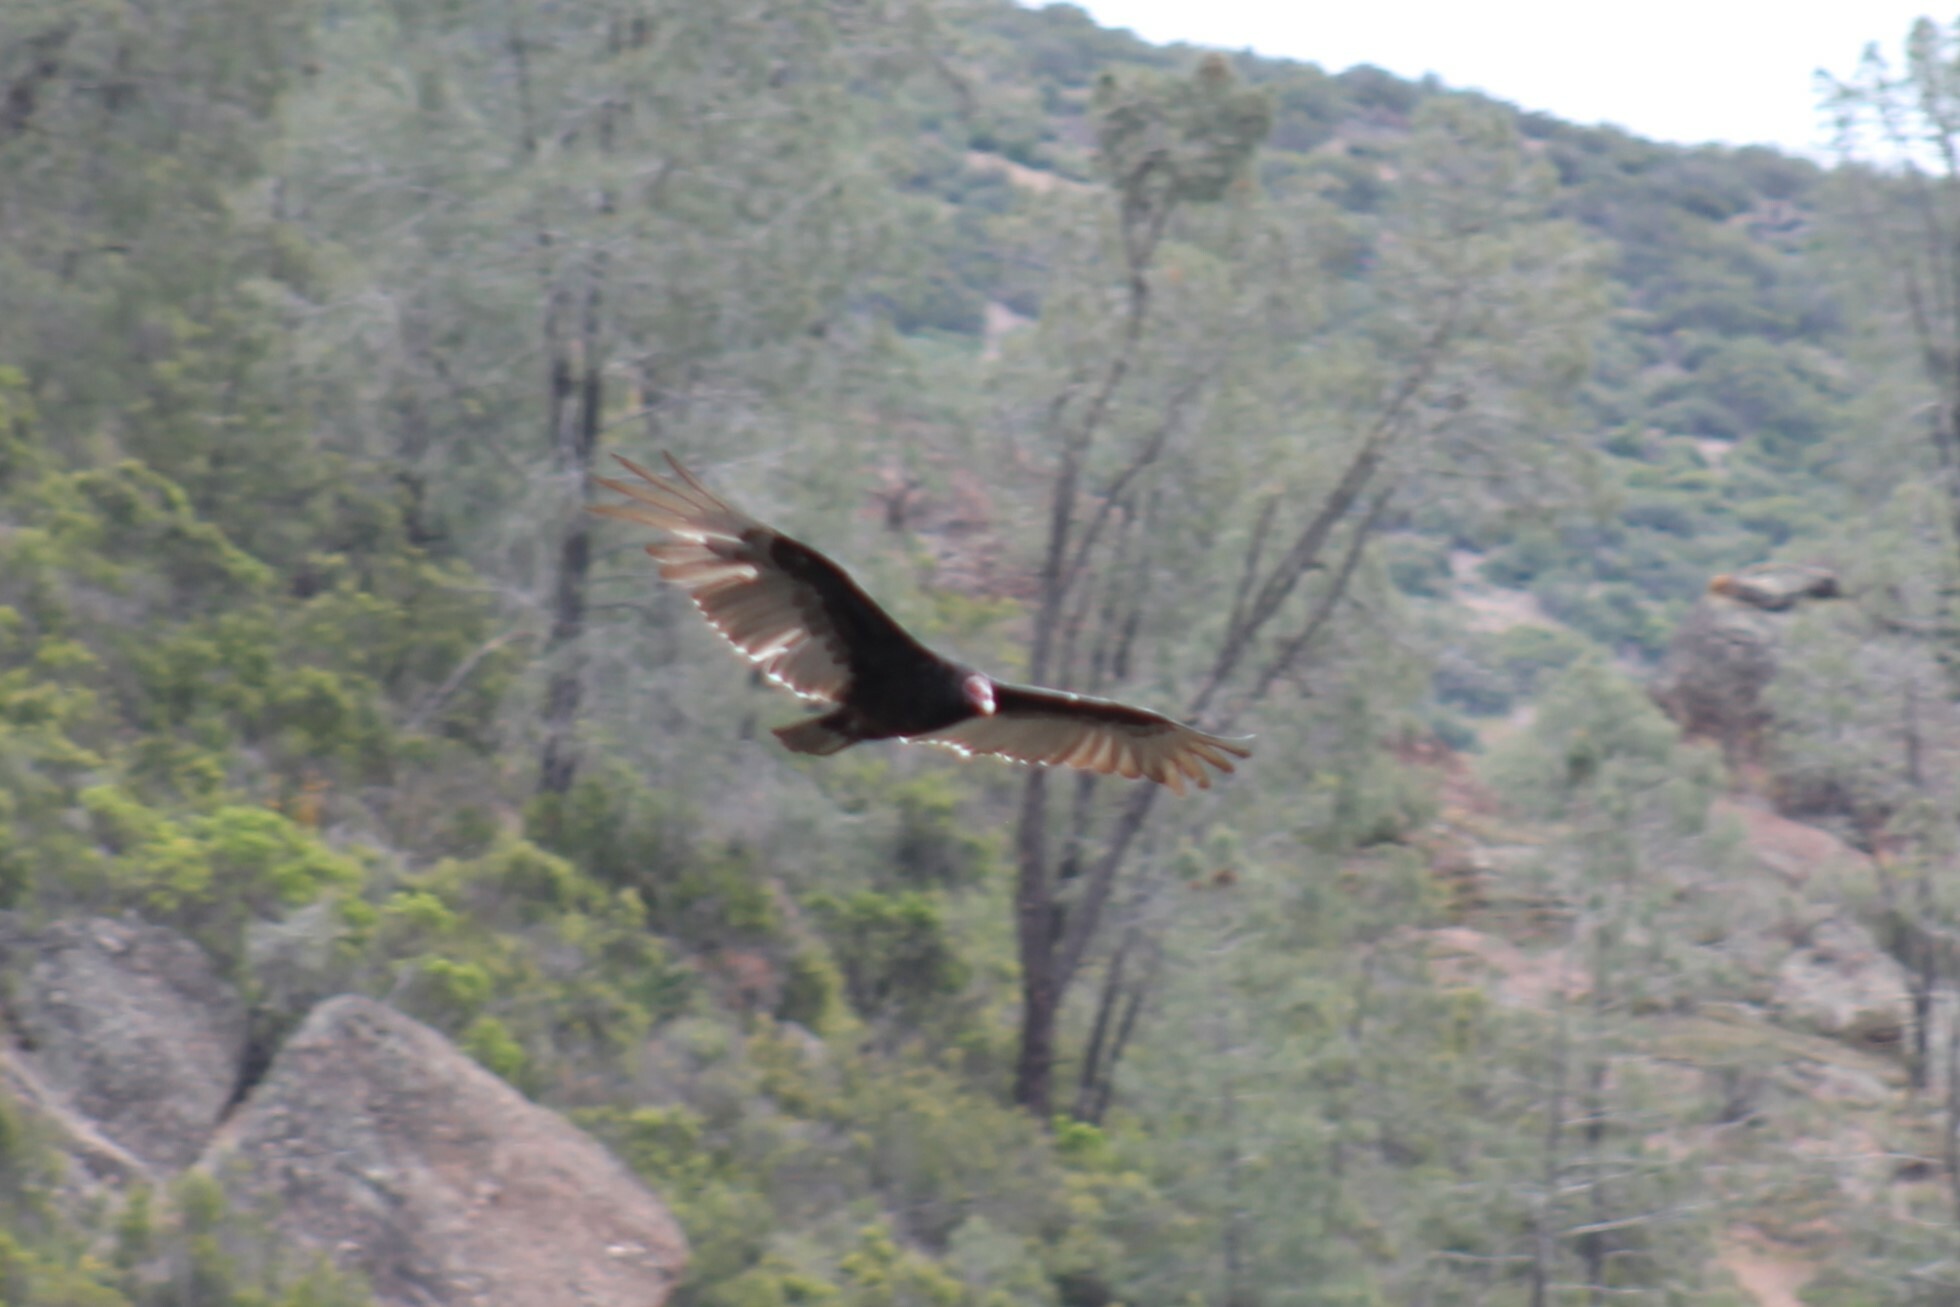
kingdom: Animalia
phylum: Chordata
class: Aves
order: Accipitriformes
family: Cathartidae
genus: Cathartes
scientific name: Cathartes aura
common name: Turkey vulture
